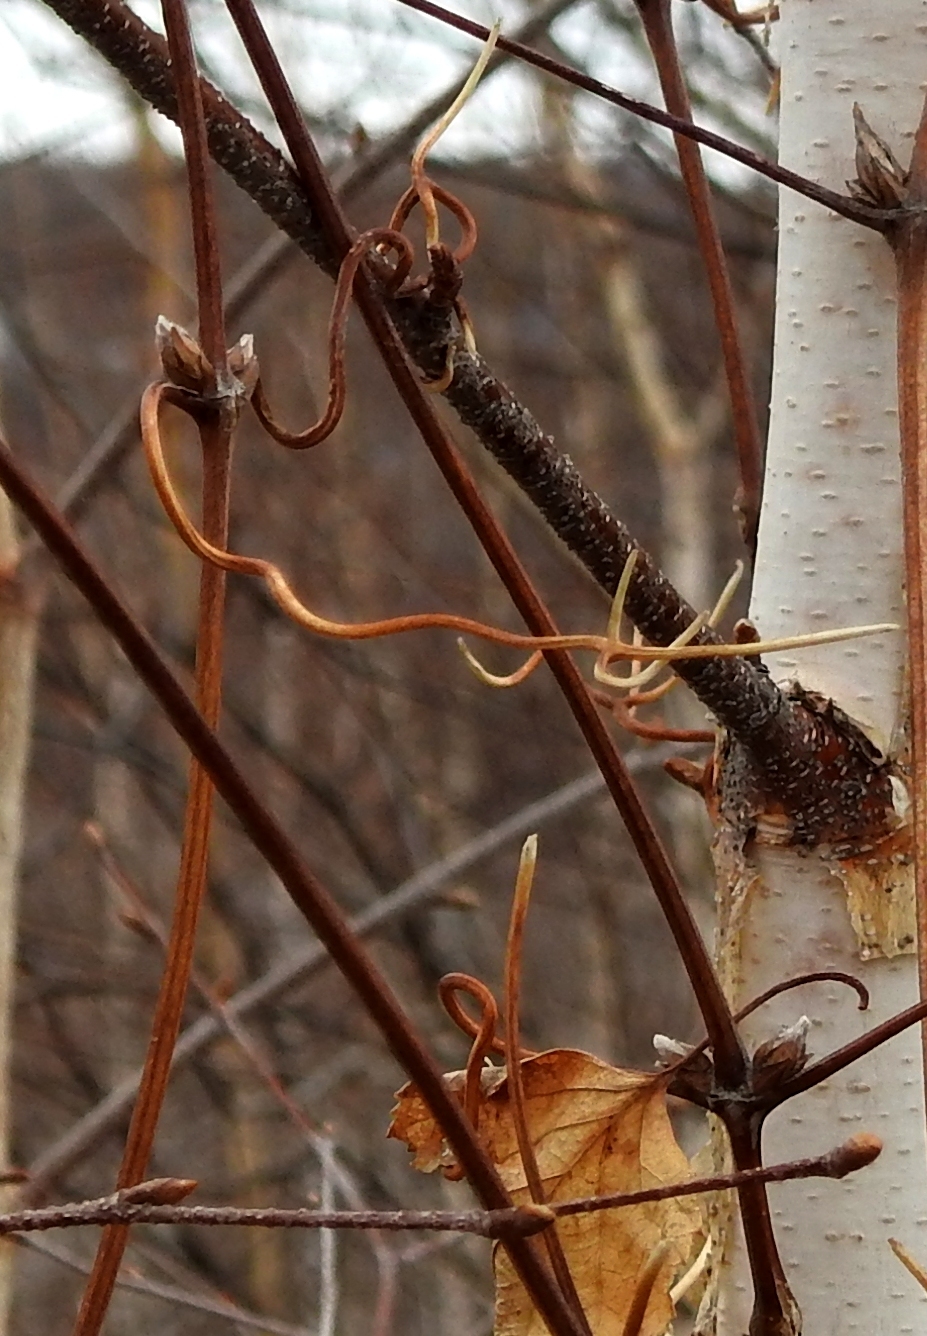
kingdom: Plantae
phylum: Tracheophyta
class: Magnoliopsida
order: Ranunculales
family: Ranunculaceae
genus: Clematis
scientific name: Clematis sibirica
